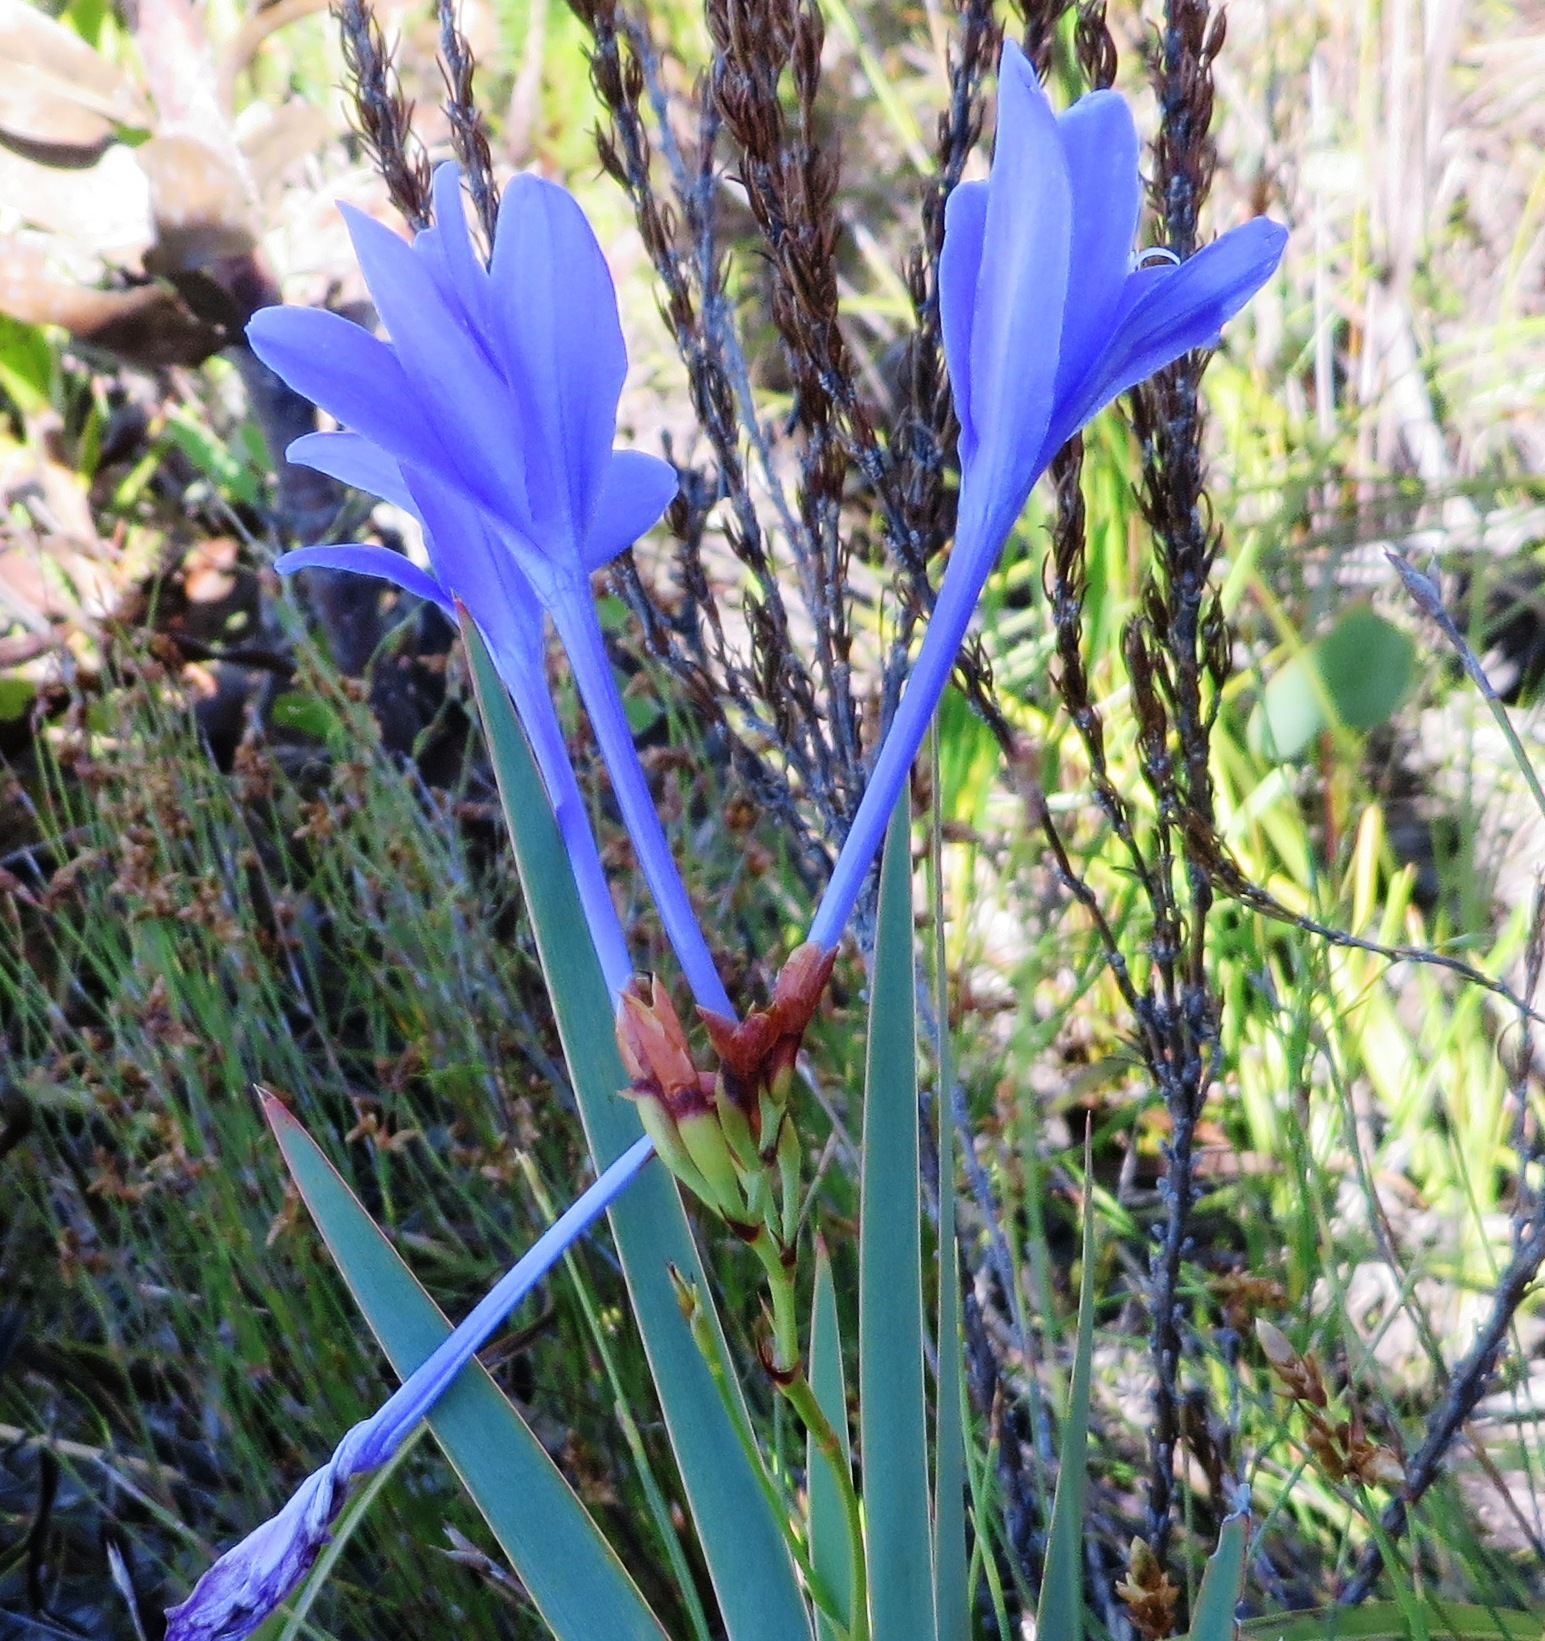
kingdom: Plantae
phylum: Tracheophyta
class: Liliopsida
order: Asparagales
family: Iridaceae
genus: Nivenia
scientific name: Nivenia stokoei
